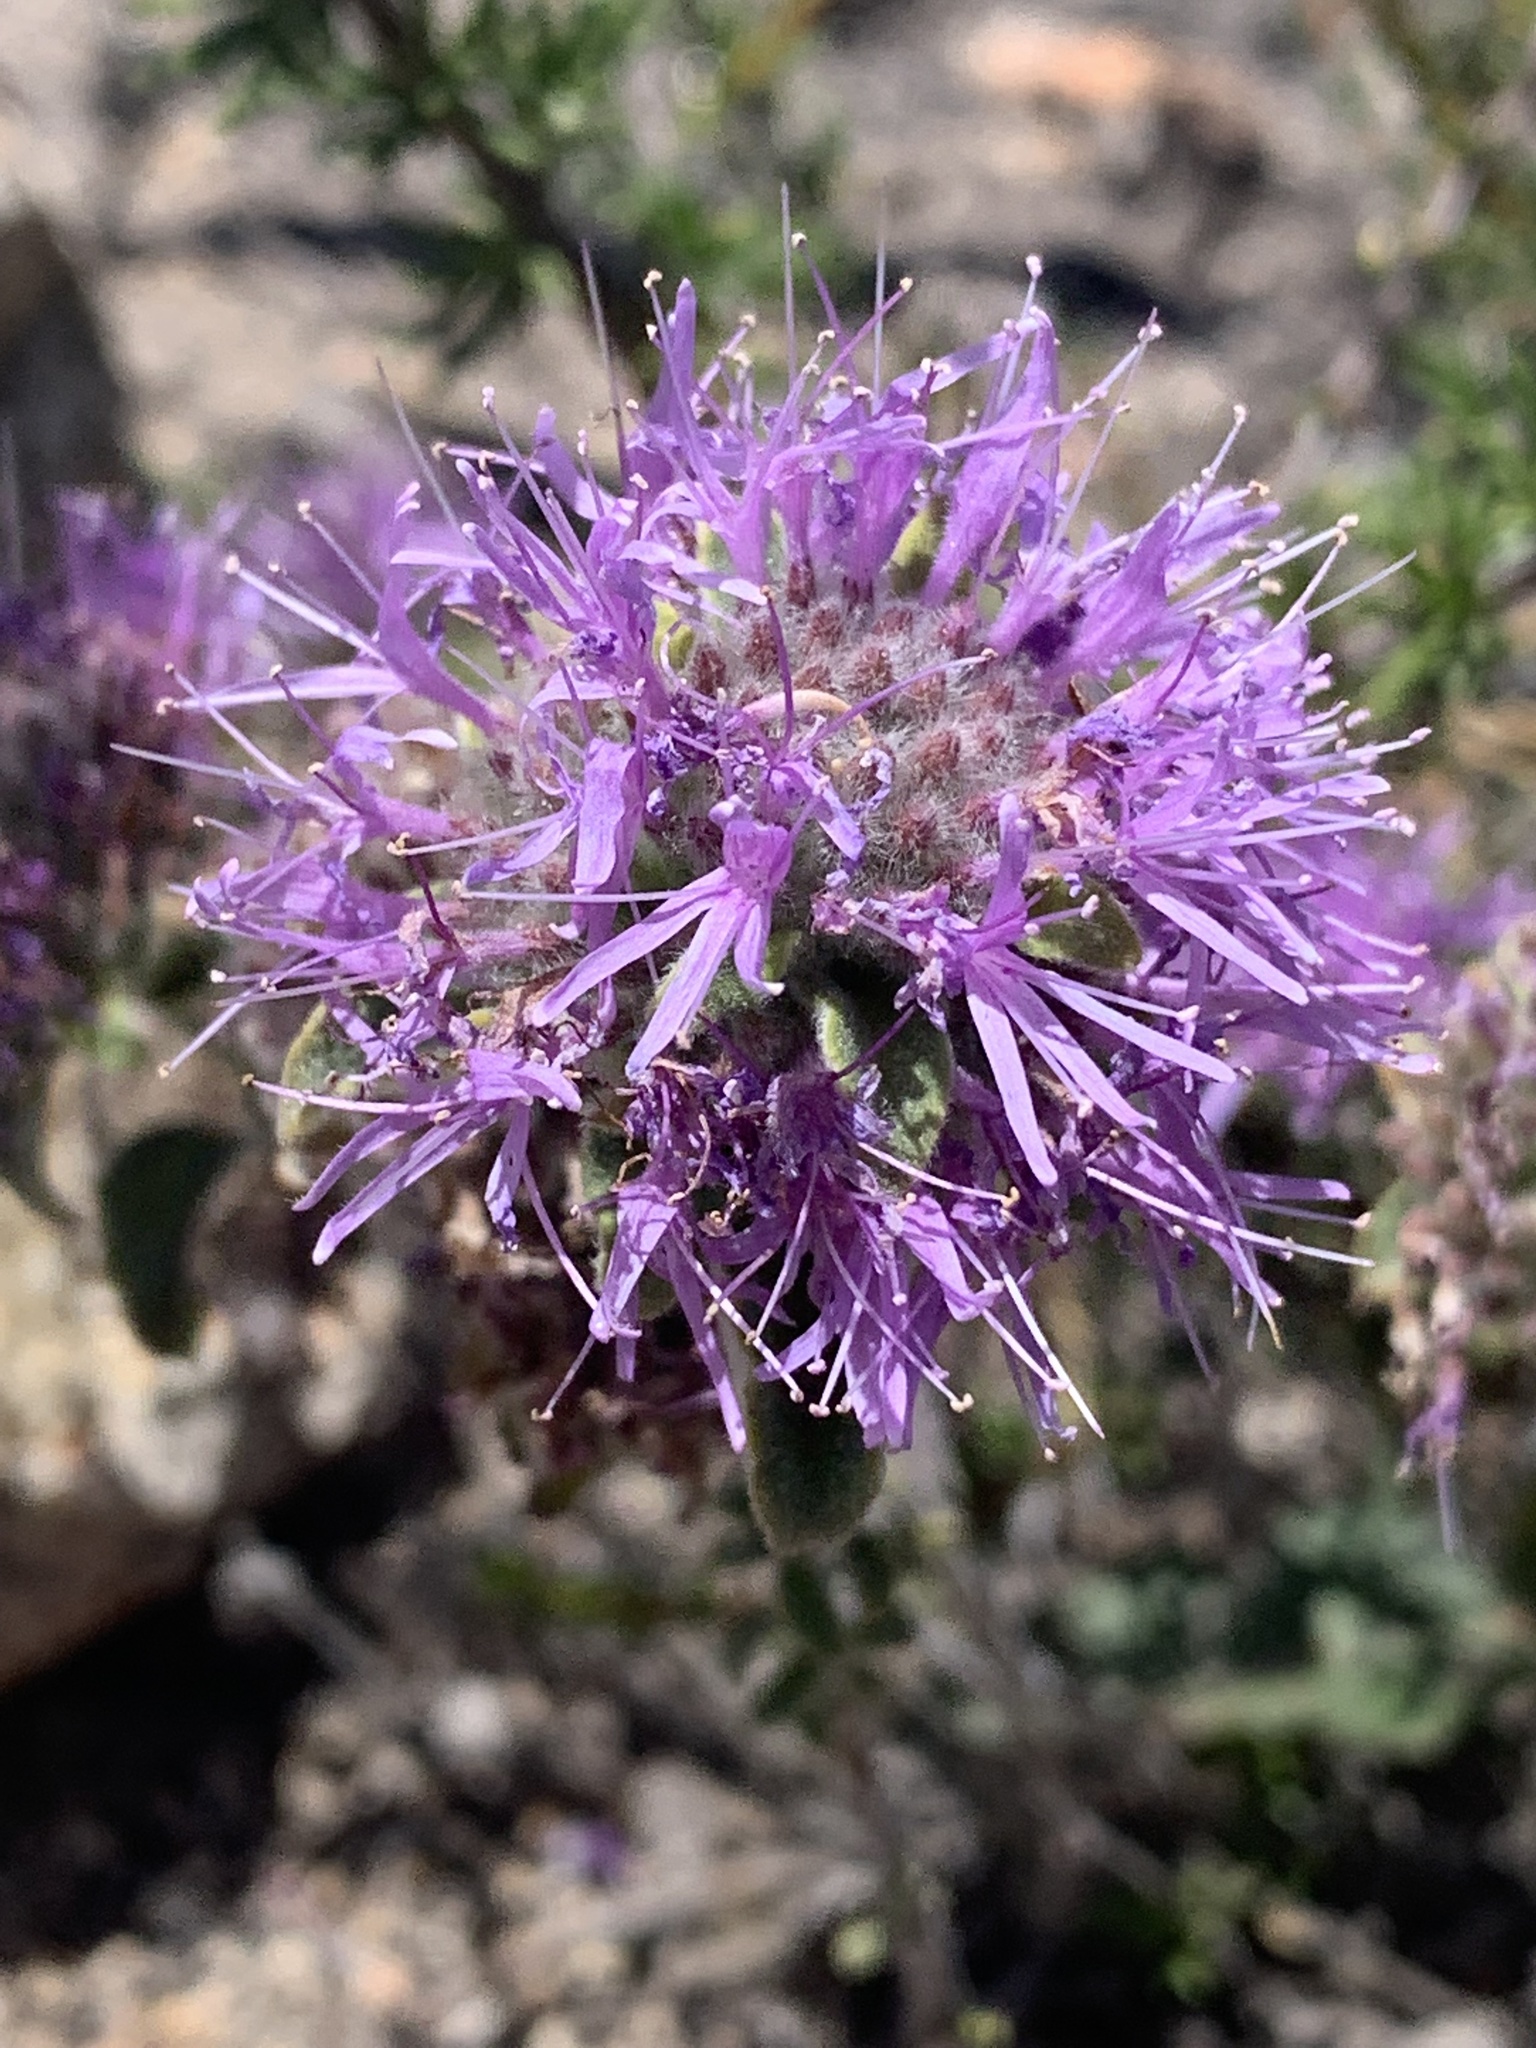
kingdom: Plantae
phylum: Tracheophyta
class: Magnoliopsida
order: Lamiales
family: Lamiaceae
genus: Monardella
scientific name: Monardella odoratissima
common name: Pacific monardella
